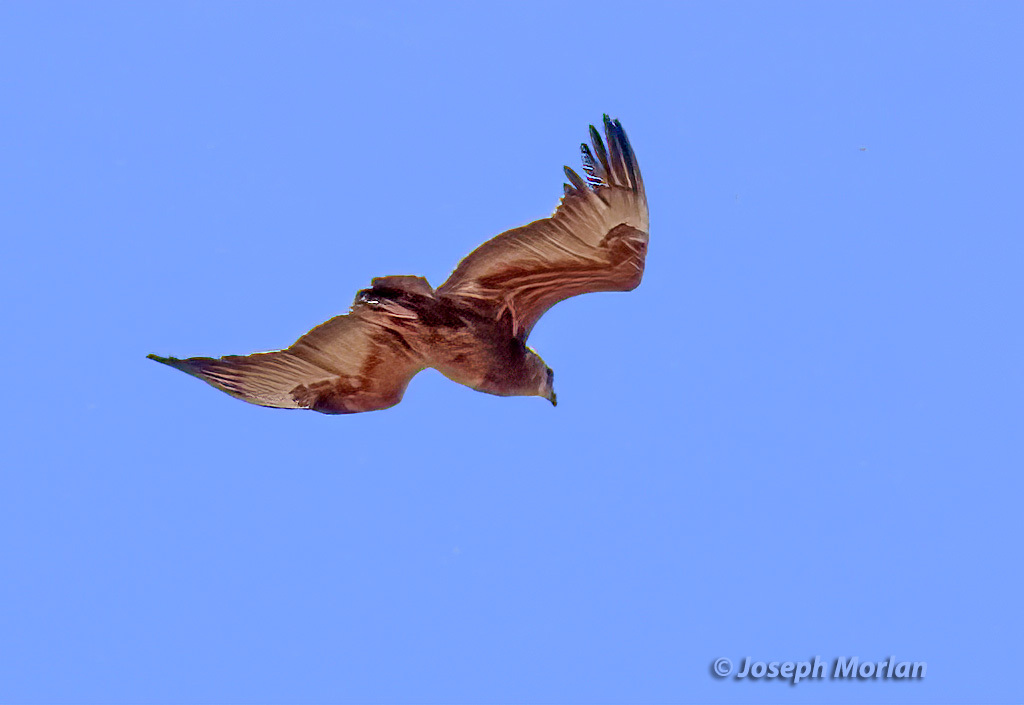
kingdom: Animalia
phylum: Chordata
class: Aves
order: Accipitriformes
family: Accipitridae
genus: Terathopius
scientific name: Terathopius ecaudatus
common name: Bateleur
